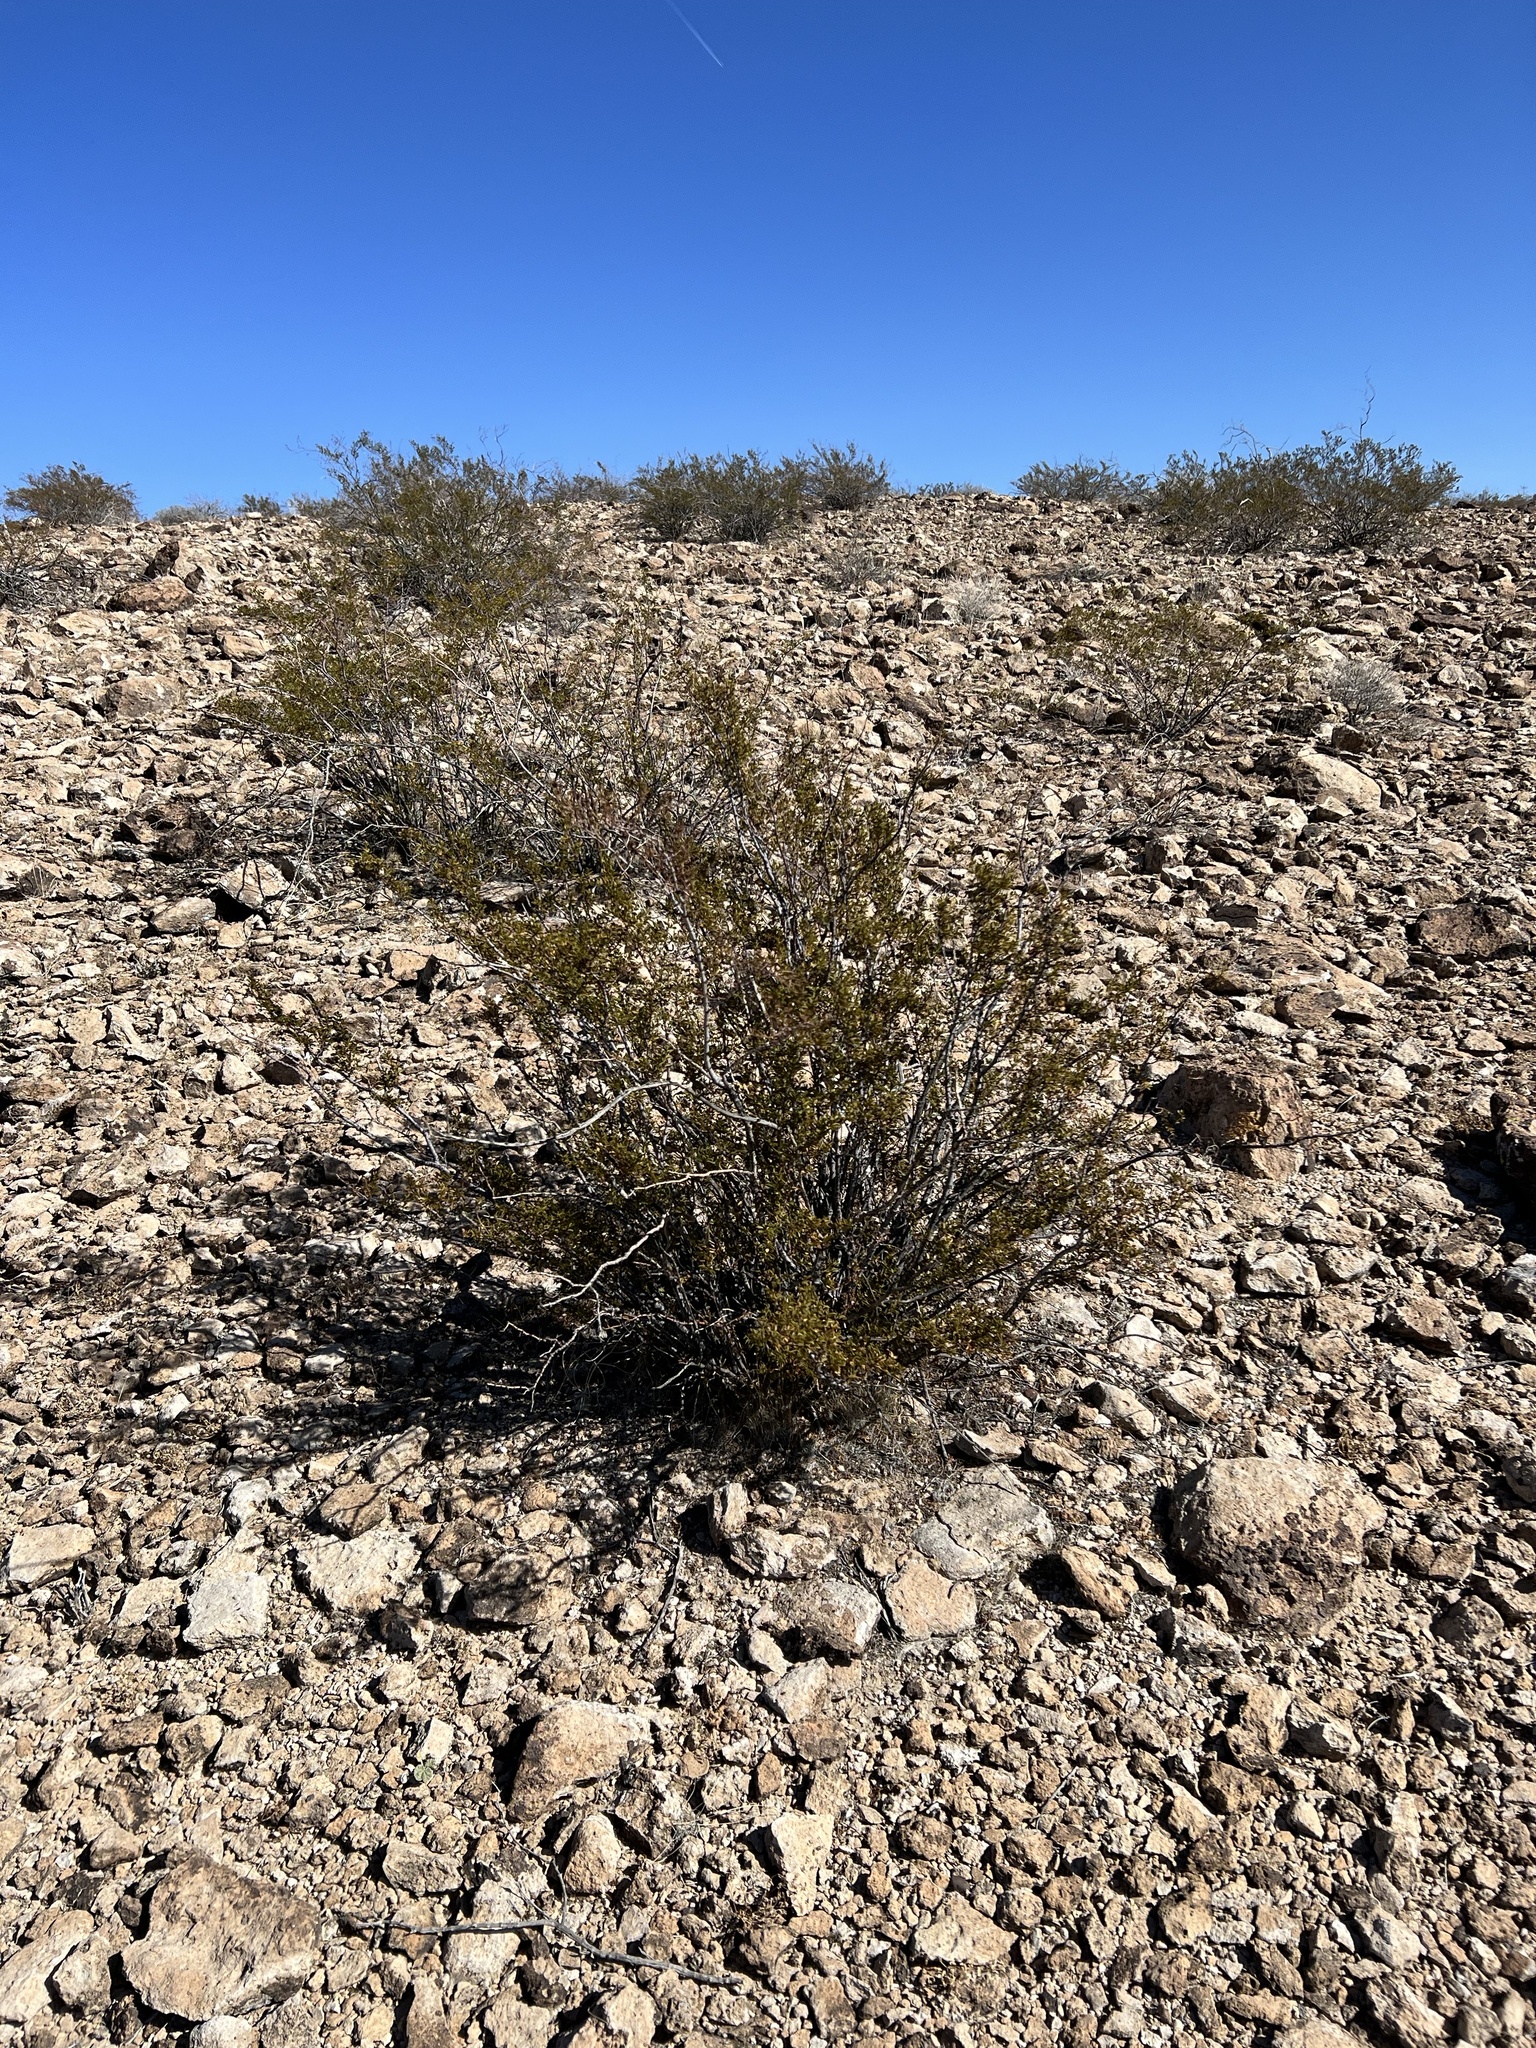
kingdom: Plantae
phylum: Tracheophyta
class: Magnoliopsida
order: Zygophyllales
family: Zygophyllaceae
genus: Larrea
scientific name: Larrea tridentata
